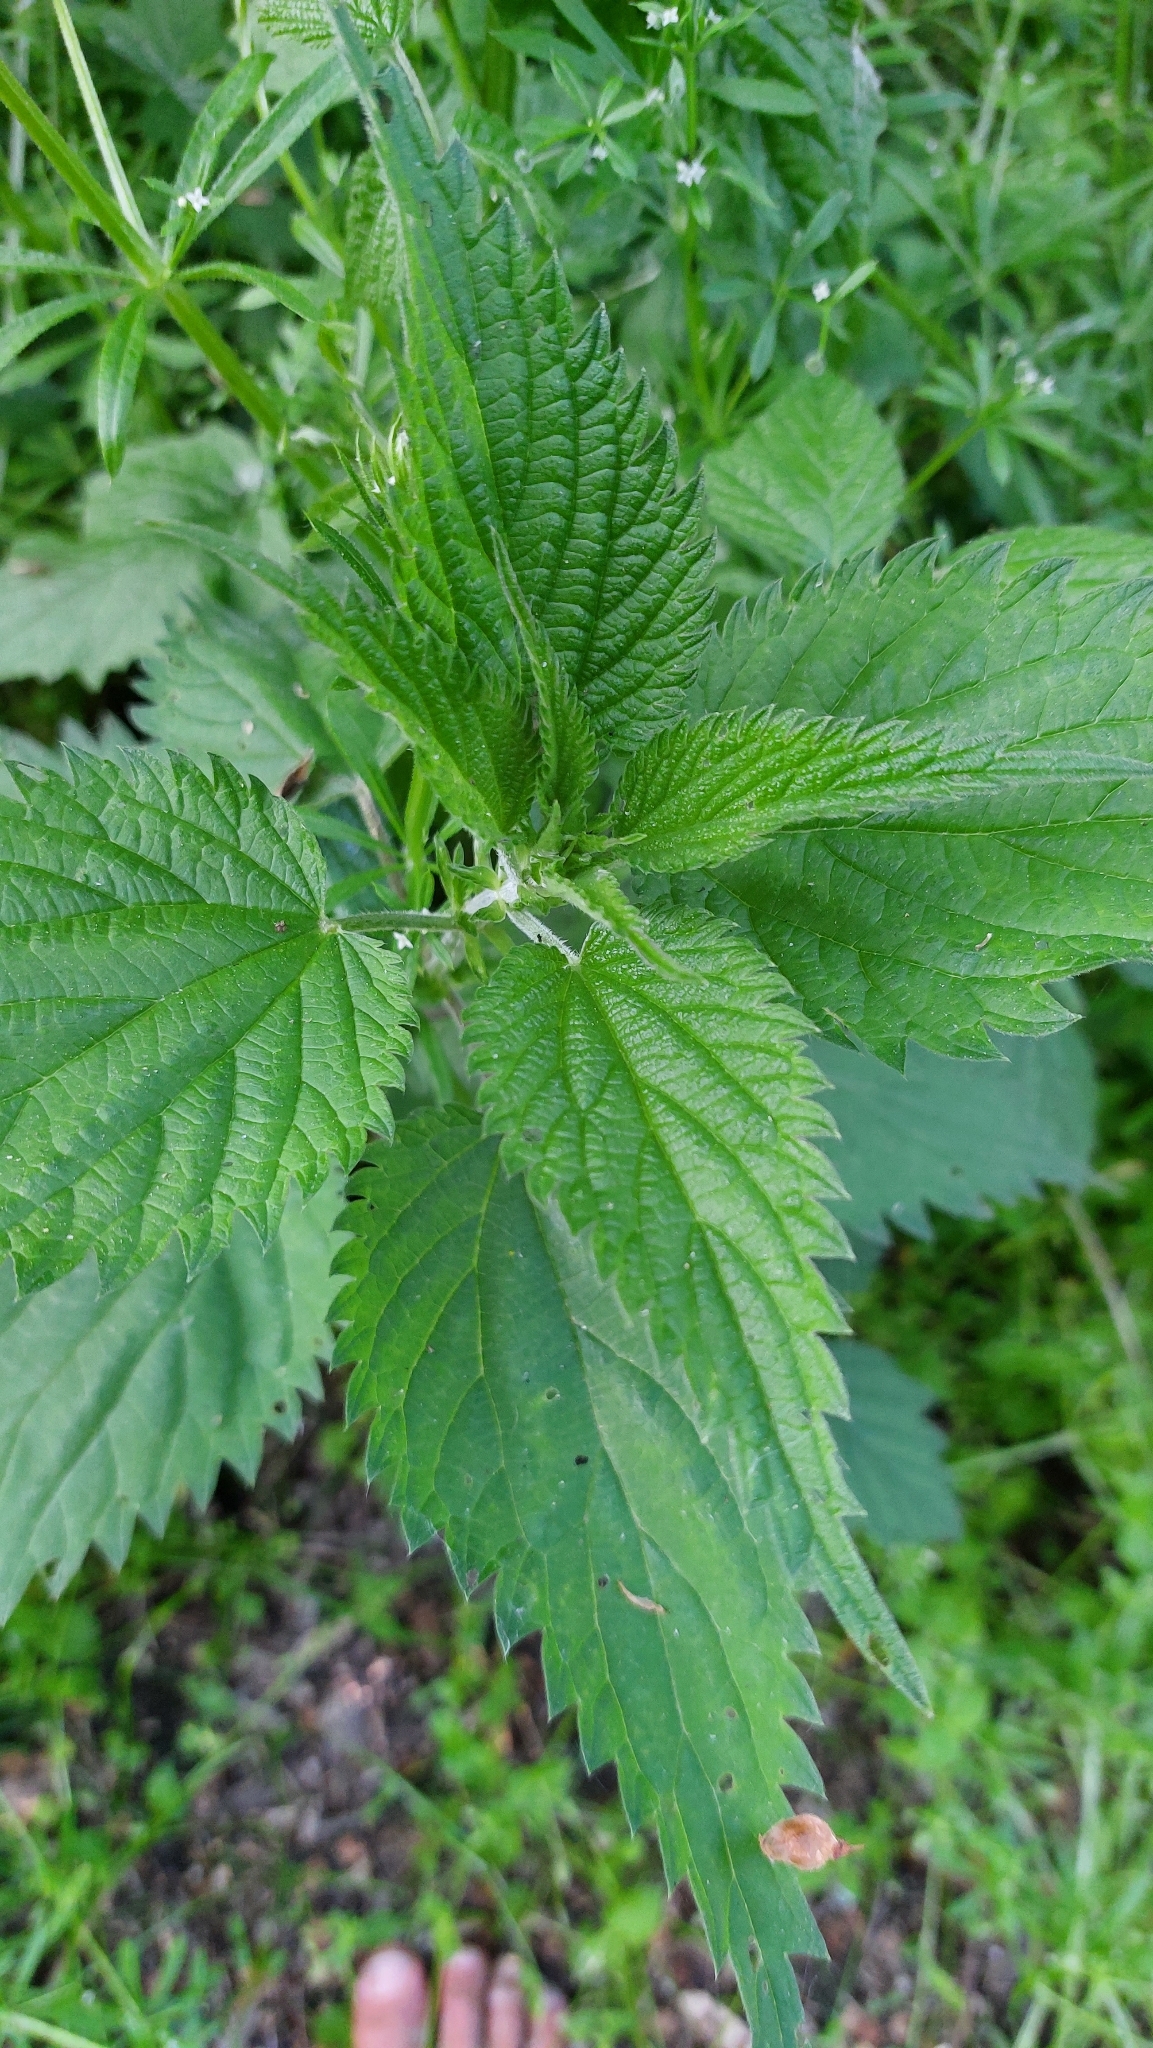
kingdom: Plantae
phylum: Tracheophyta
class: Magnoliopsida
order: Rosales
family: Urticaceae
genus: Urtica
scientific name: Urtica dioica
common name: Common nettle
